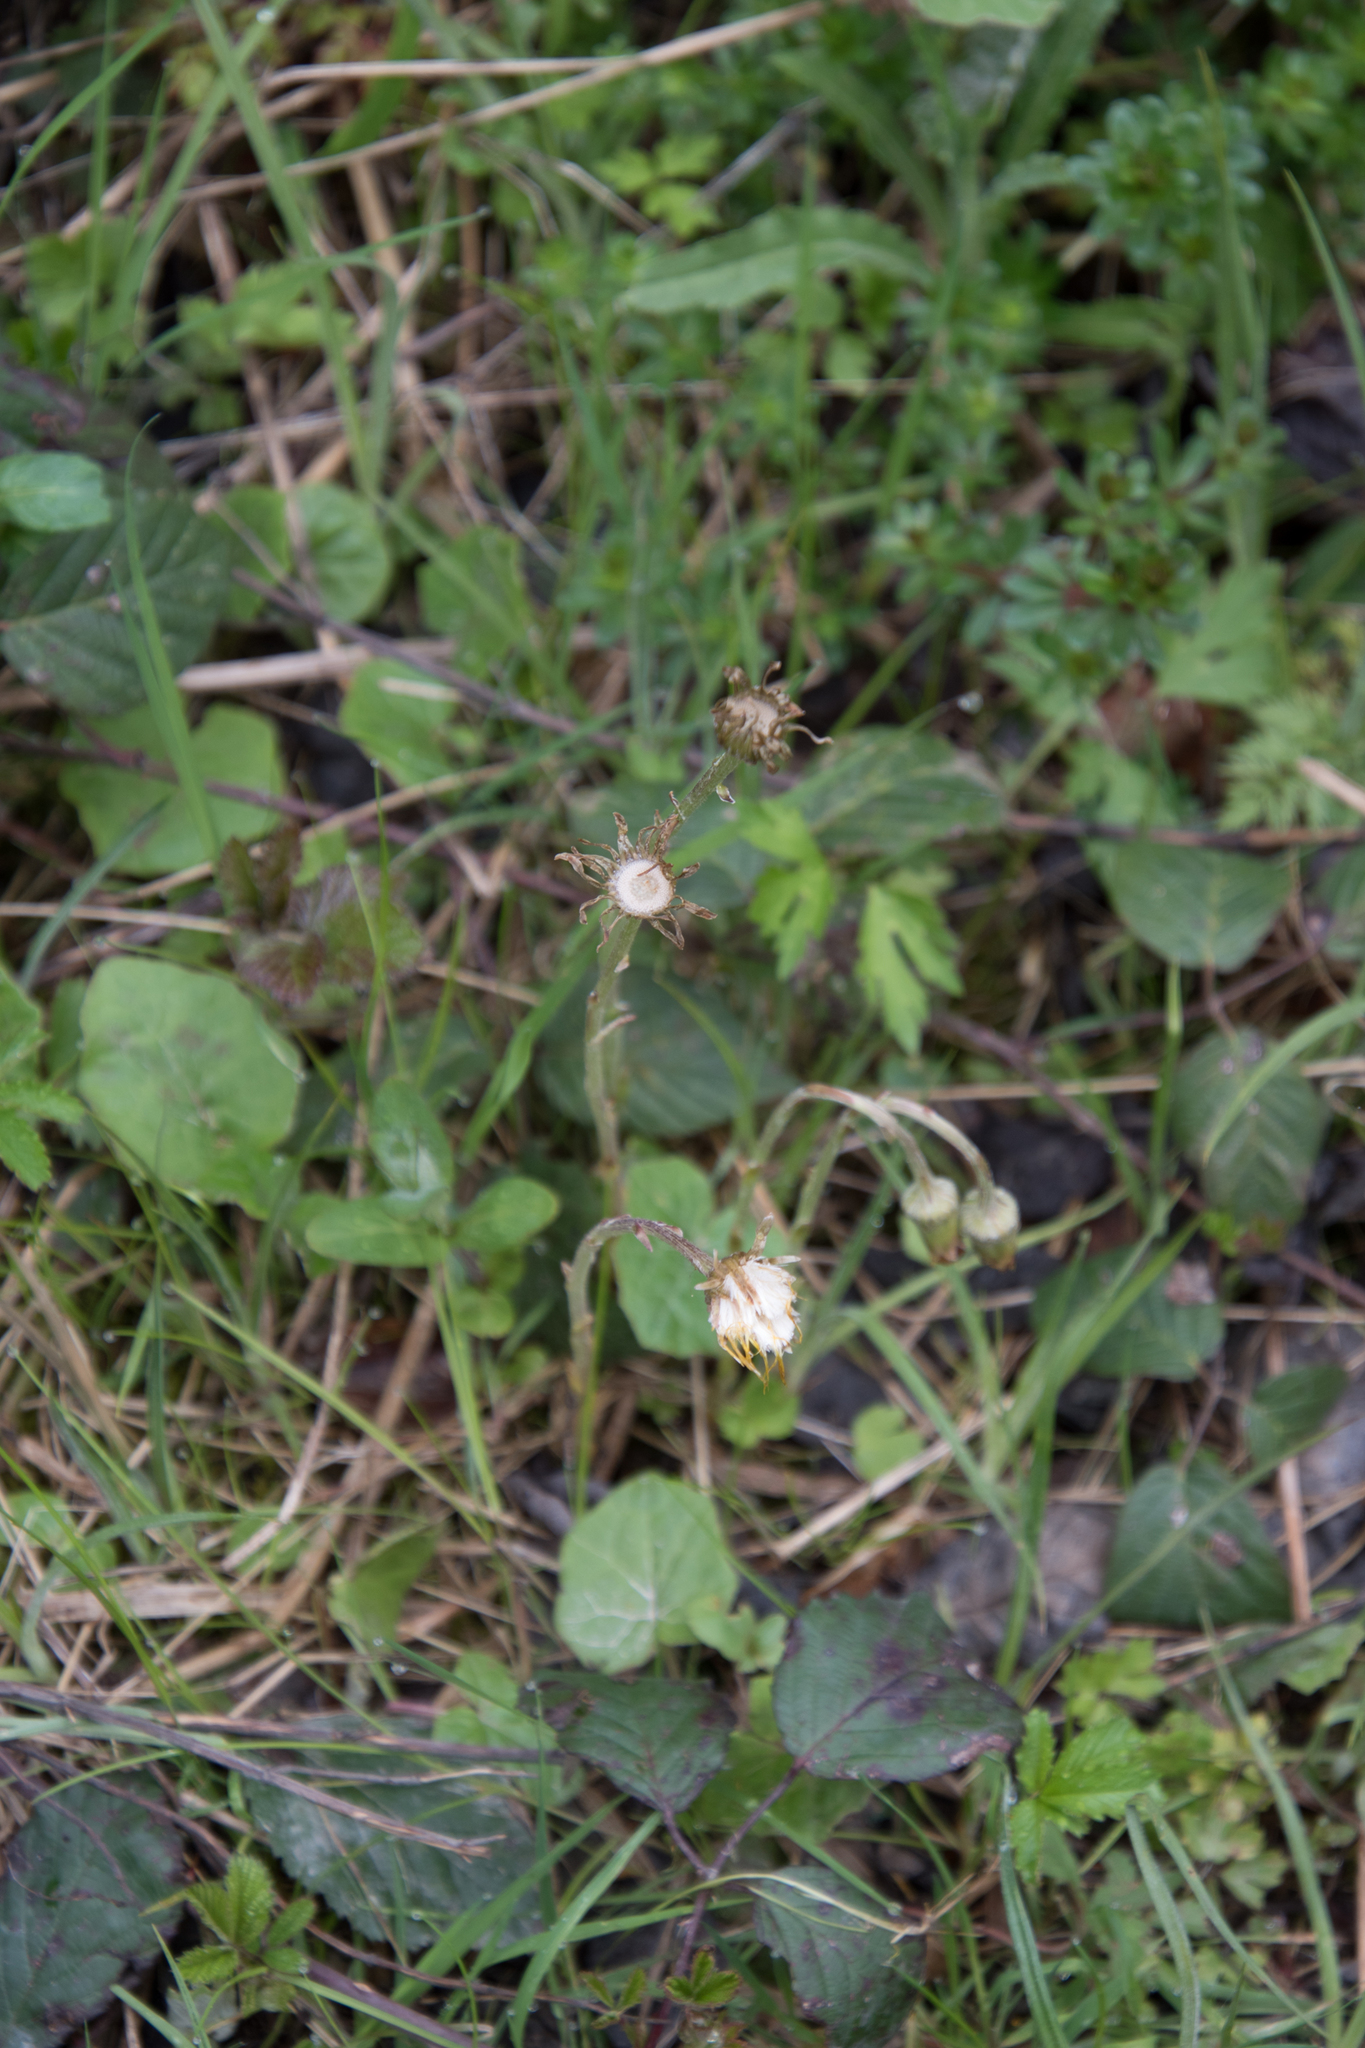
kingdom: Plantae
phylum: Tracheophyta
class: Magnoliopsida
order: Asterales
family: Asteraceae
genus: Tussilago
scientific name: Tussilago farfara
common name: Coltsfoot
